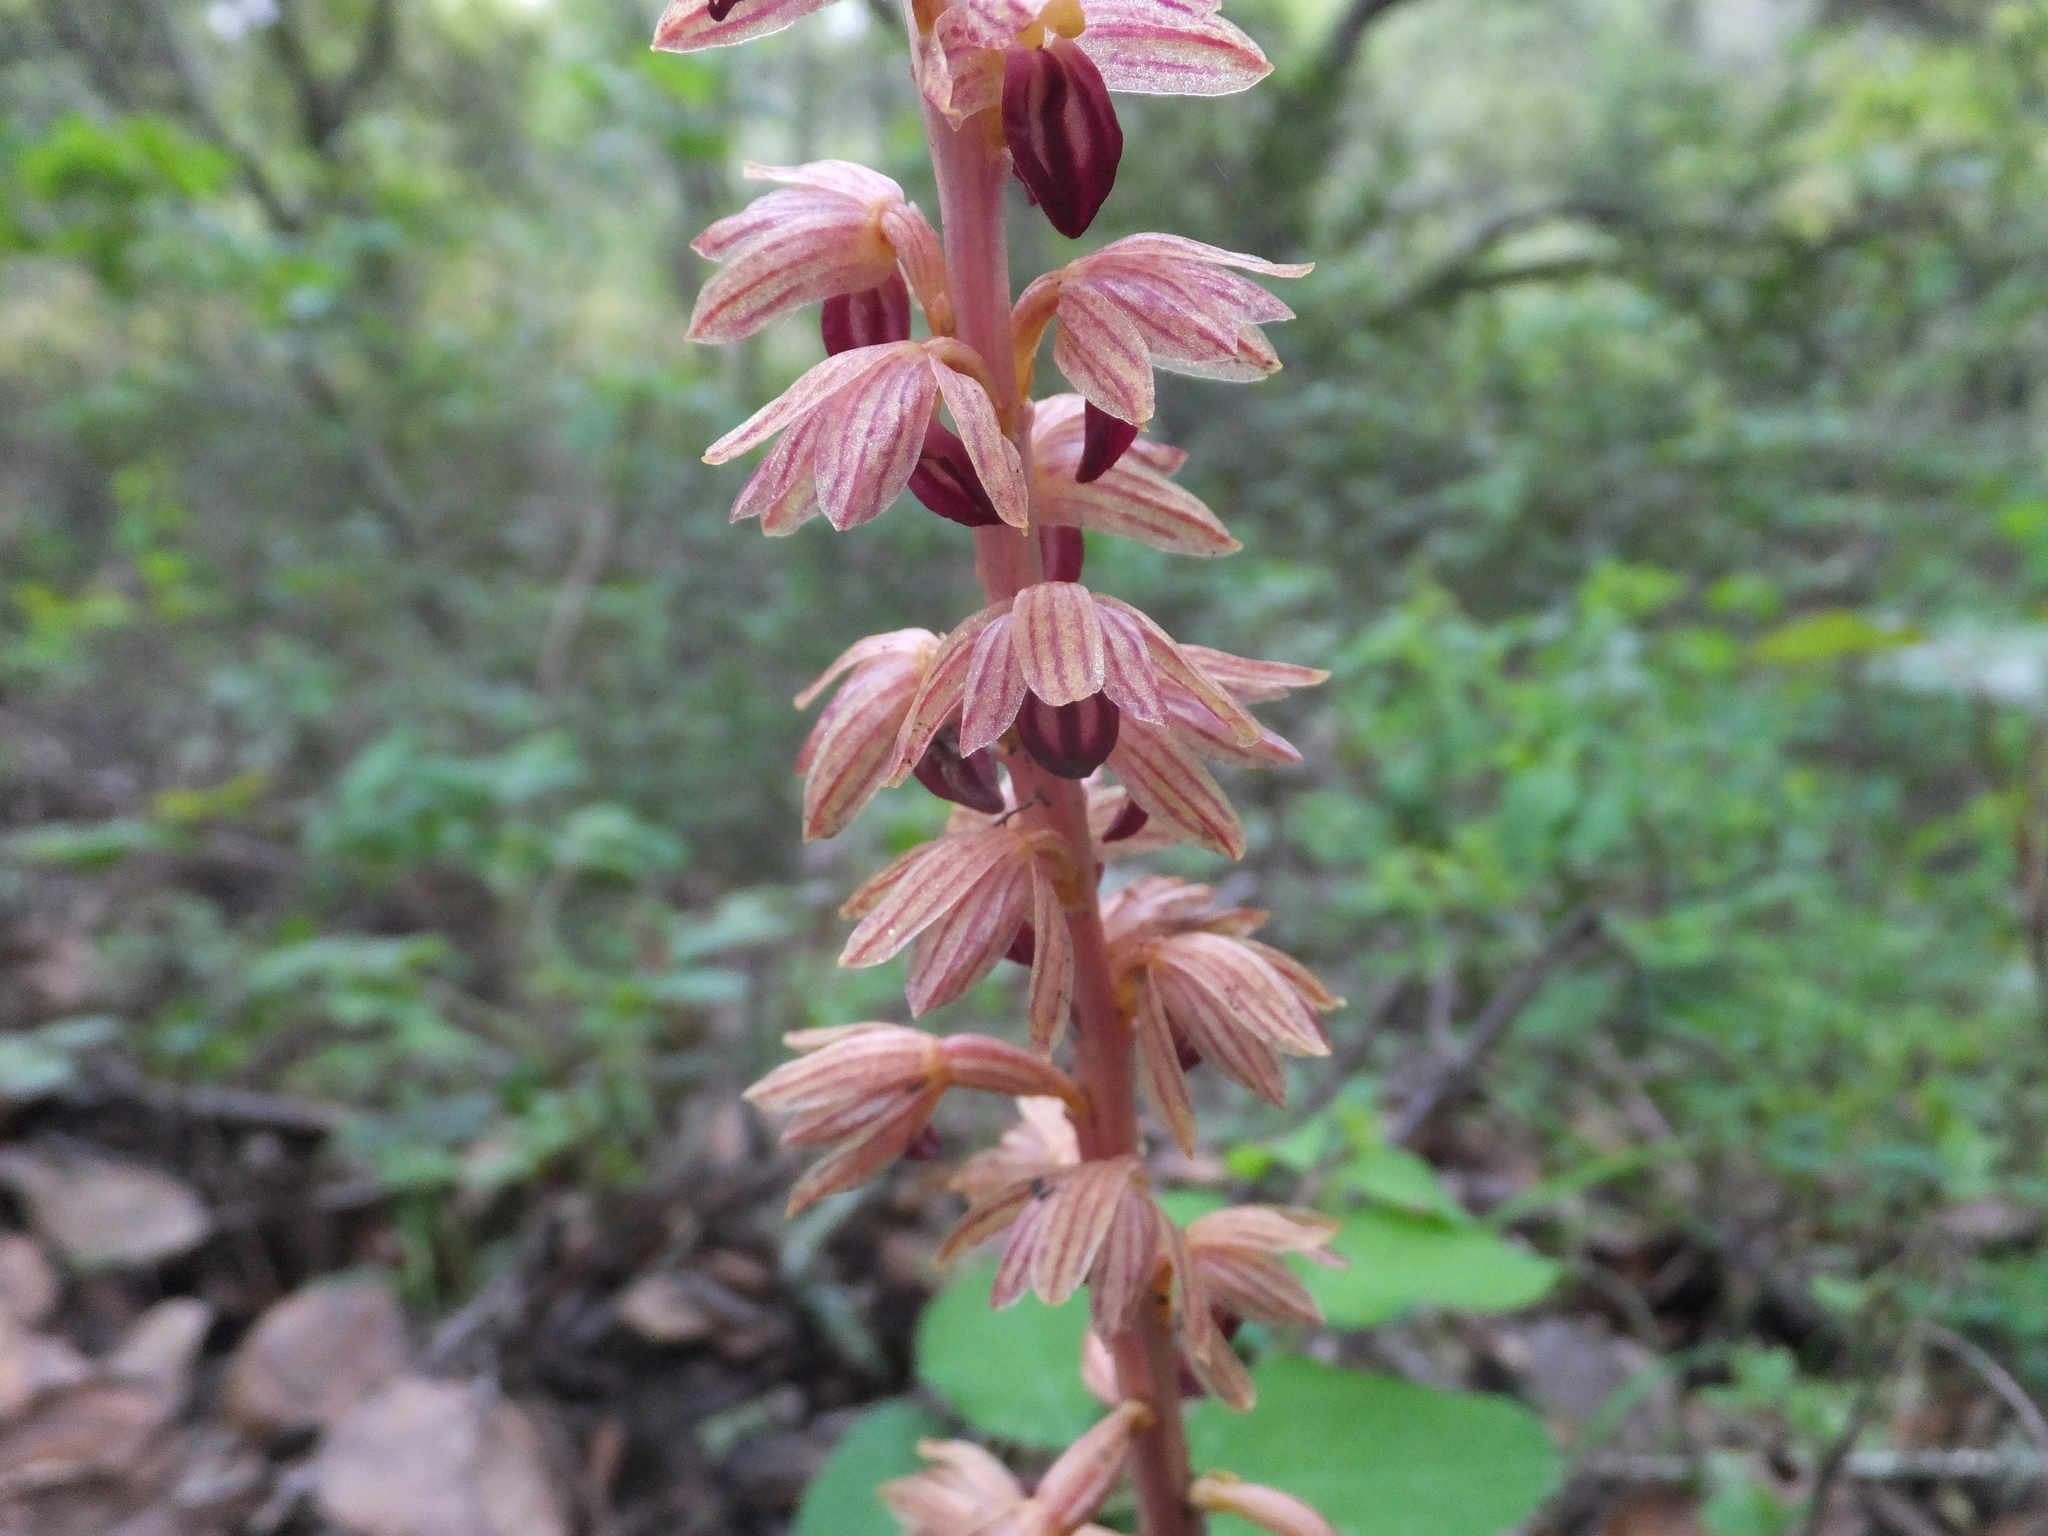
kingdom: Plantae
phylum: Tracheophyta
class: Liliopsida
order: Asparagales
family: Orchidaceae
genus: Corallorhiza
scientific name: Corallorhiza striata
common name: Hooded coralroot
